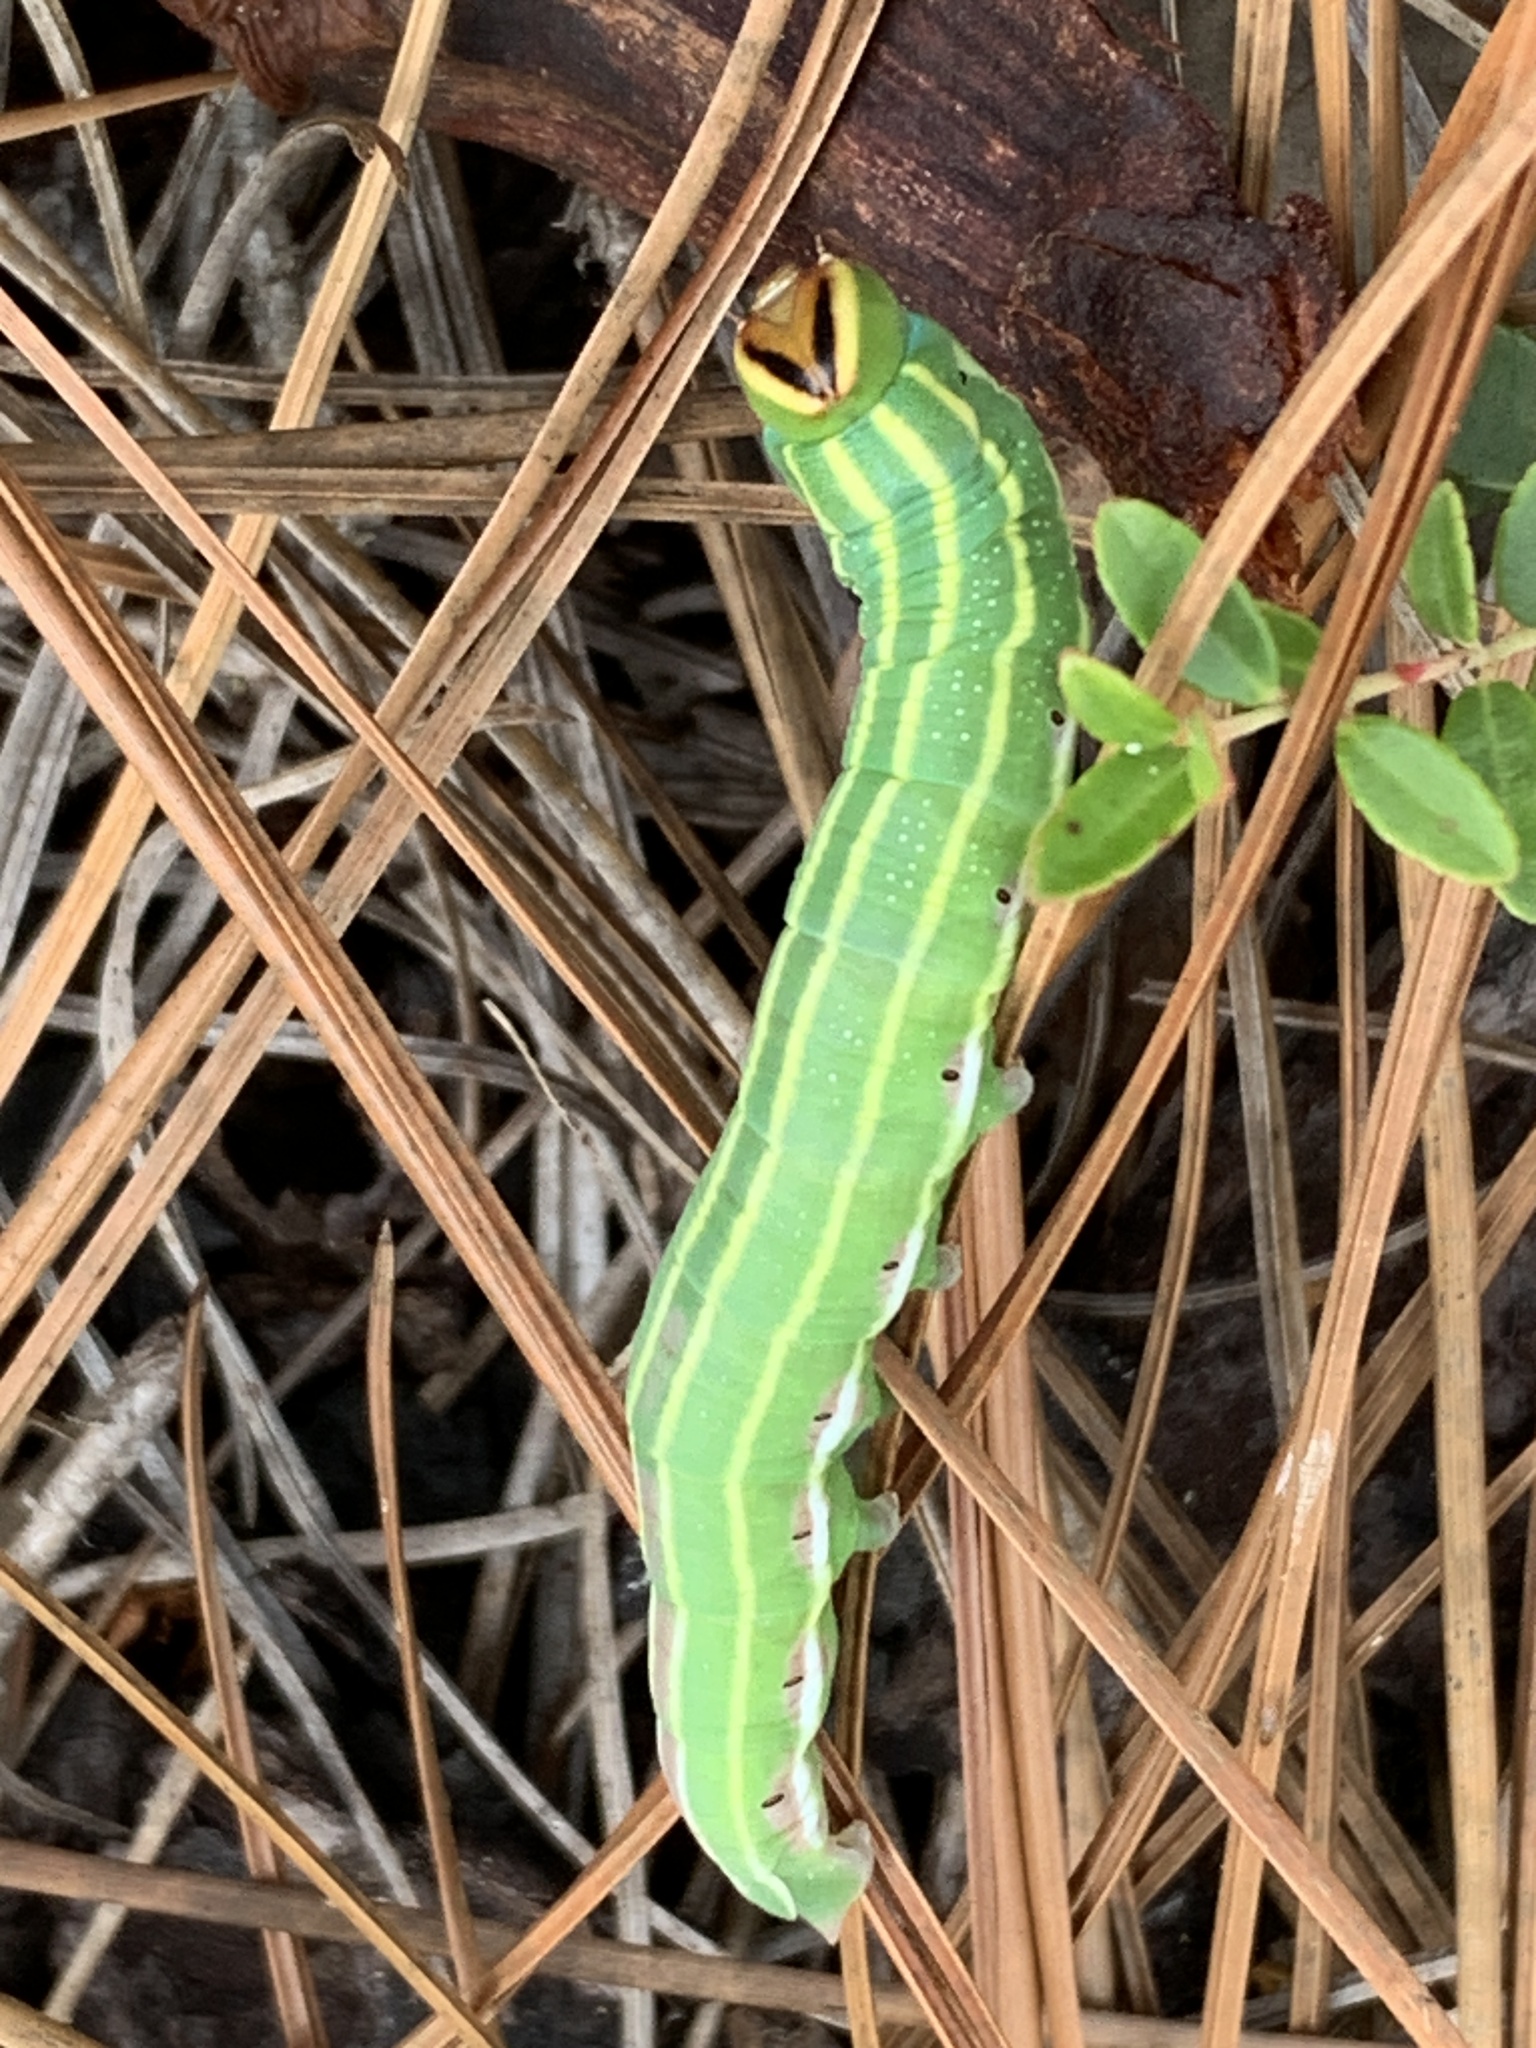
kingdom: Animalia
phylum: Arthropoda
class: Insecta
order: Lepidoptera
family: Sphingidae
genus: Lapara
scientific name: Lapara coniferarum
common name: Southern pine sphinx
